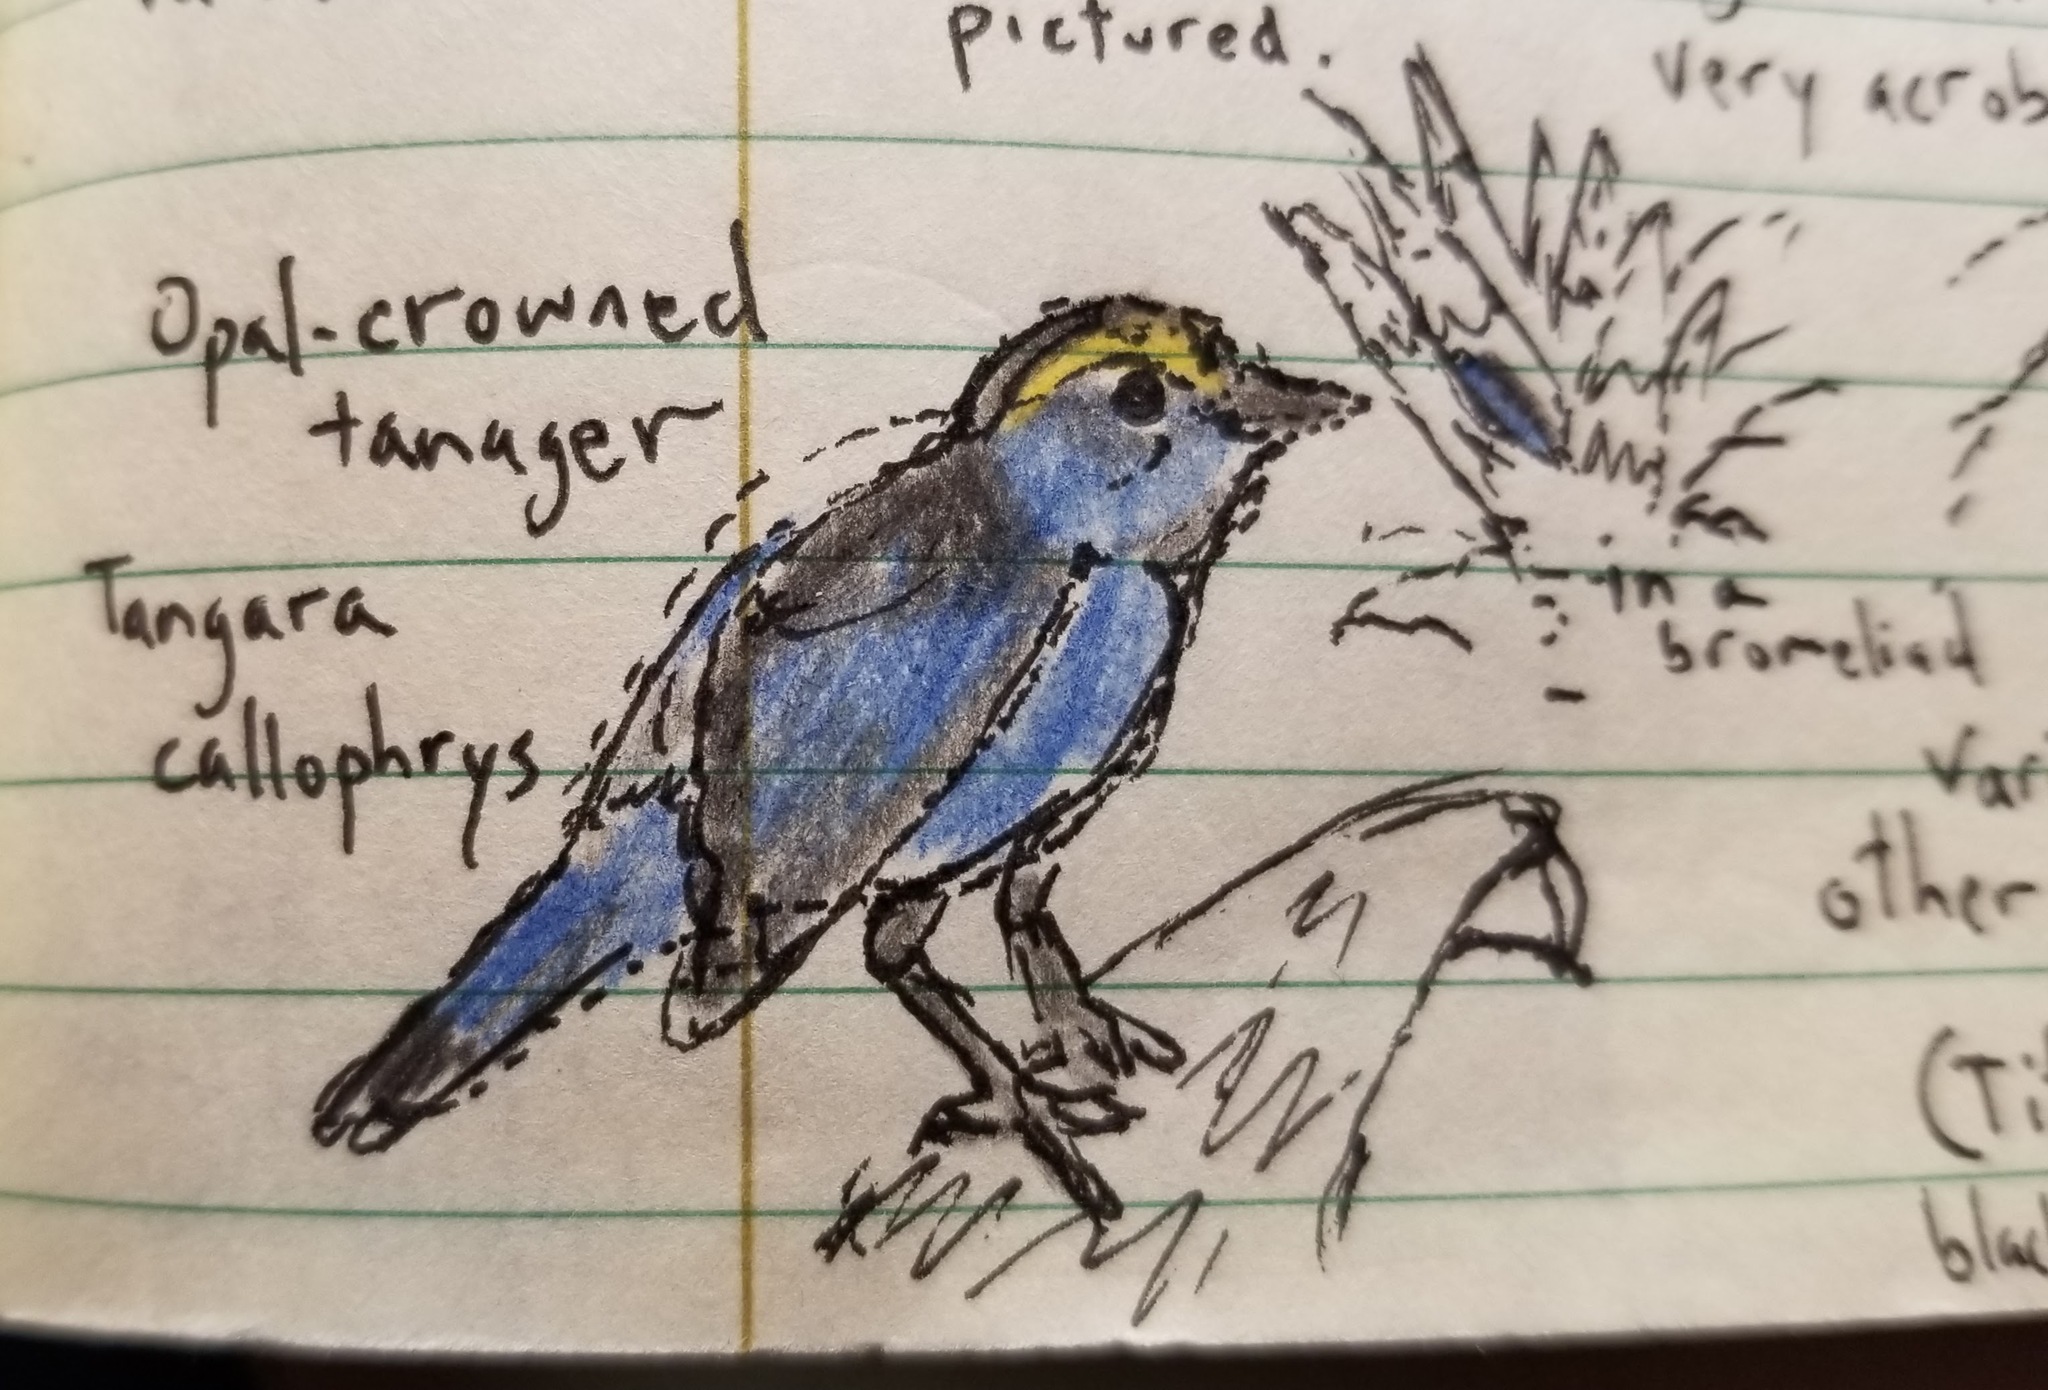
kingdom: Animalia
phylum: Chordata
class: Aves
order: Passeriformes
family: Thraupidae
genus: Tangara
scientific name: Tangara callophrys
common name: Opal-crowned tanager
